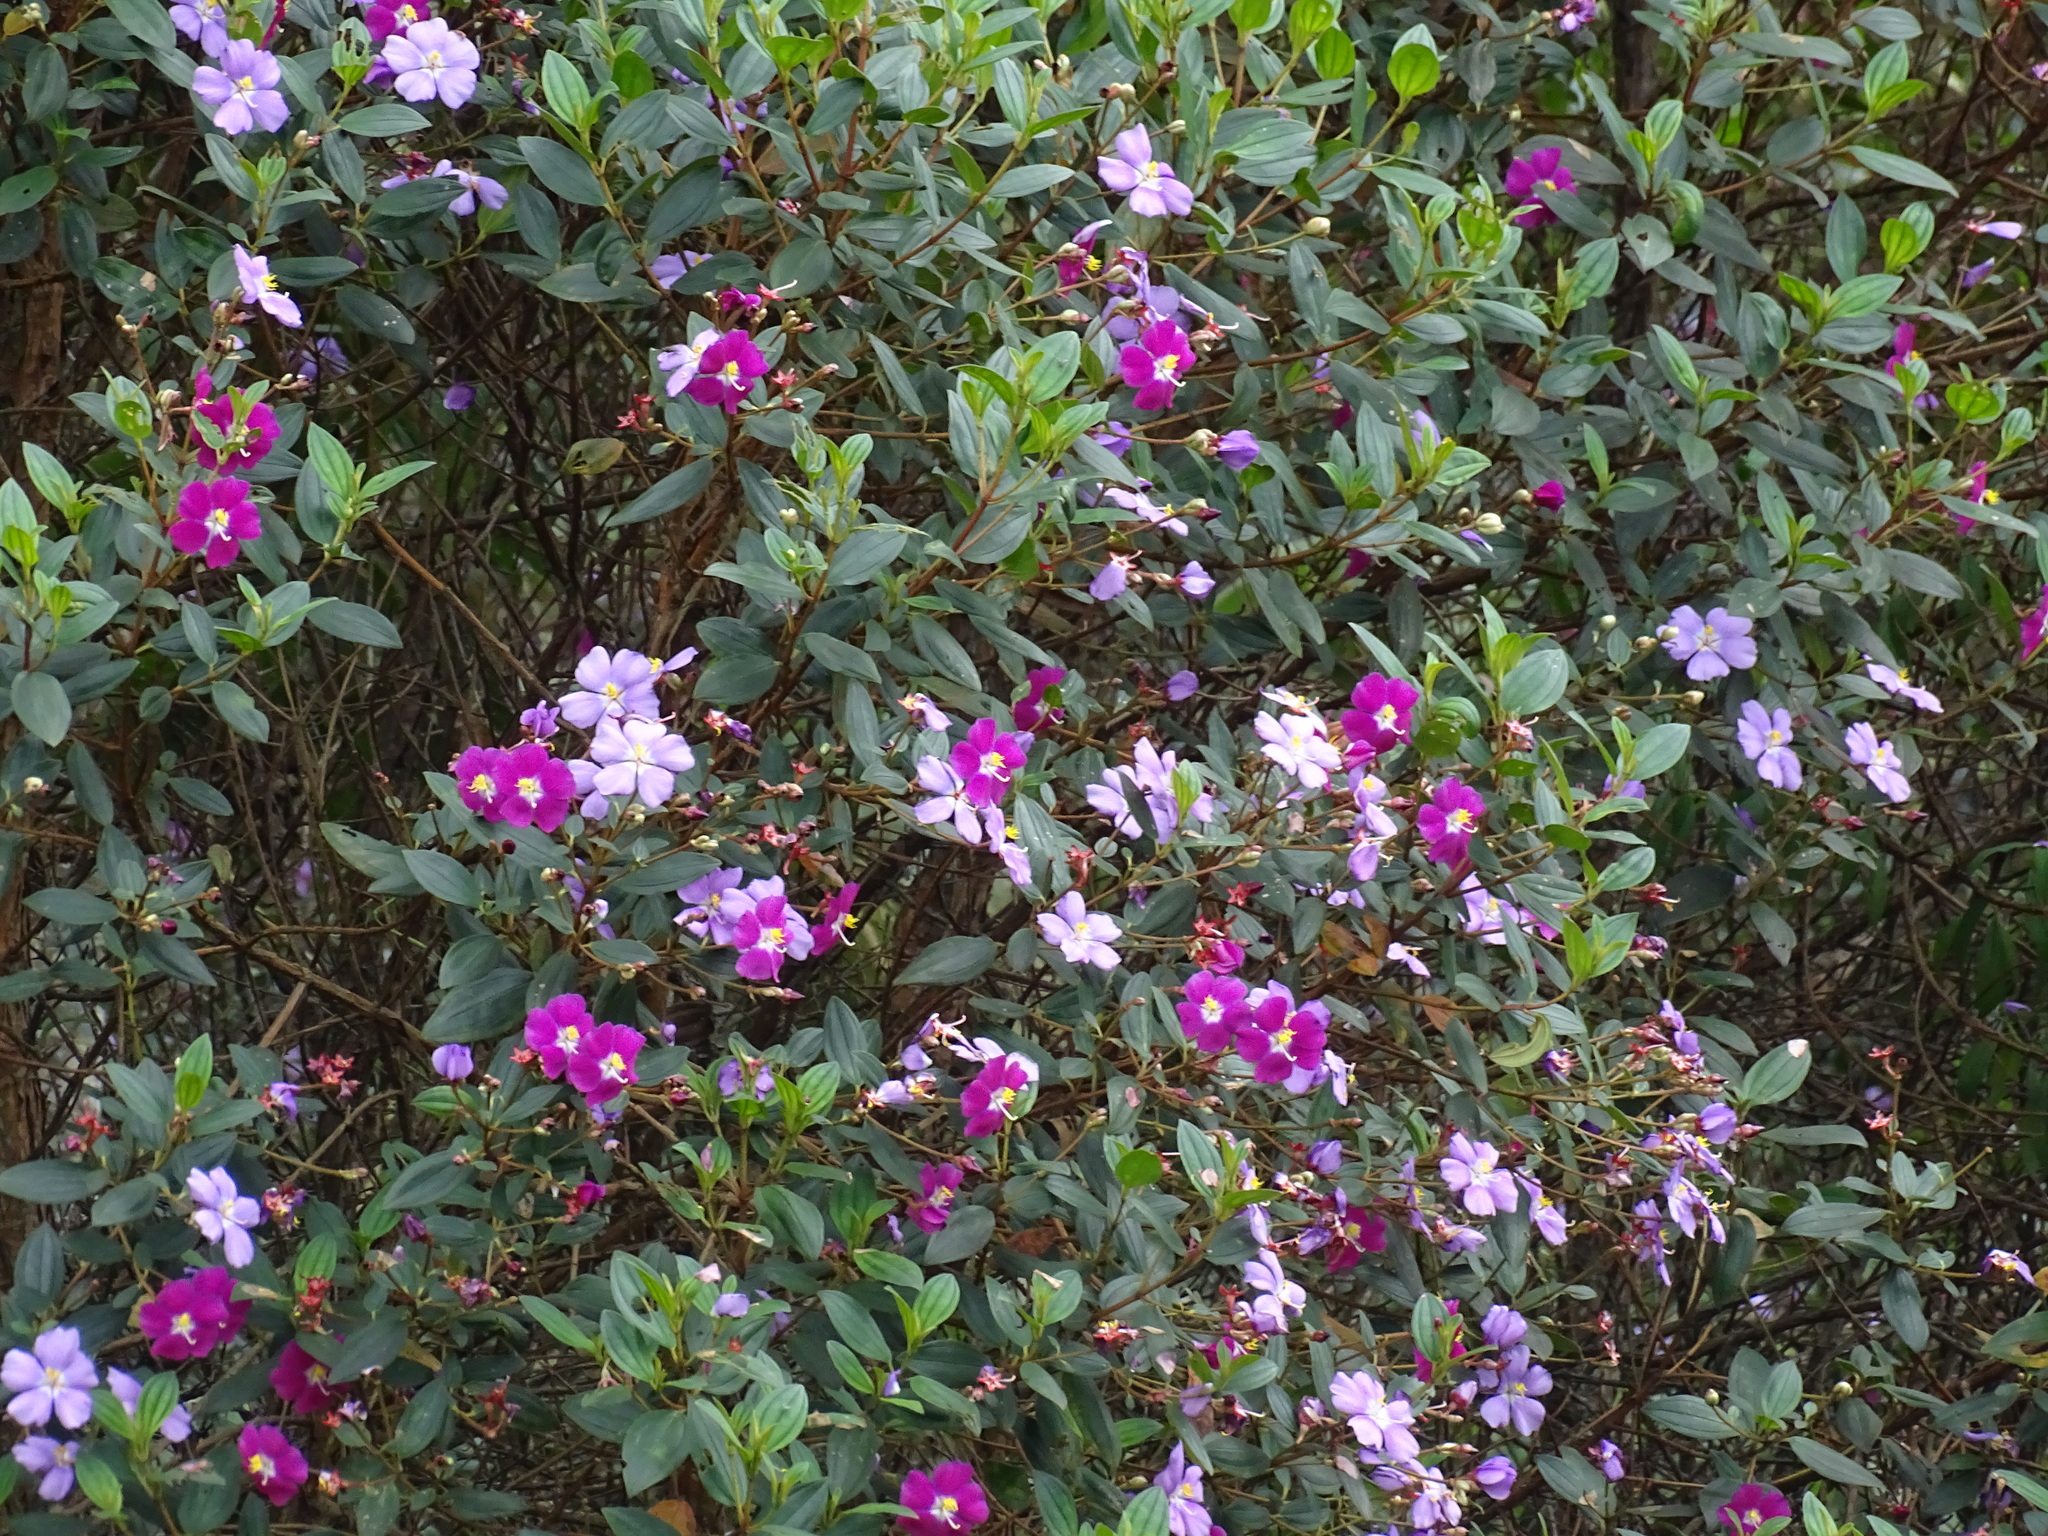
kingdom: Plantae
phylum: Tracheophyta
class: Magnoliopsida
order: Myrtales
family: Melastomataceae
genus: Andesanthus
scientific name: Andesanthus lepidotus
